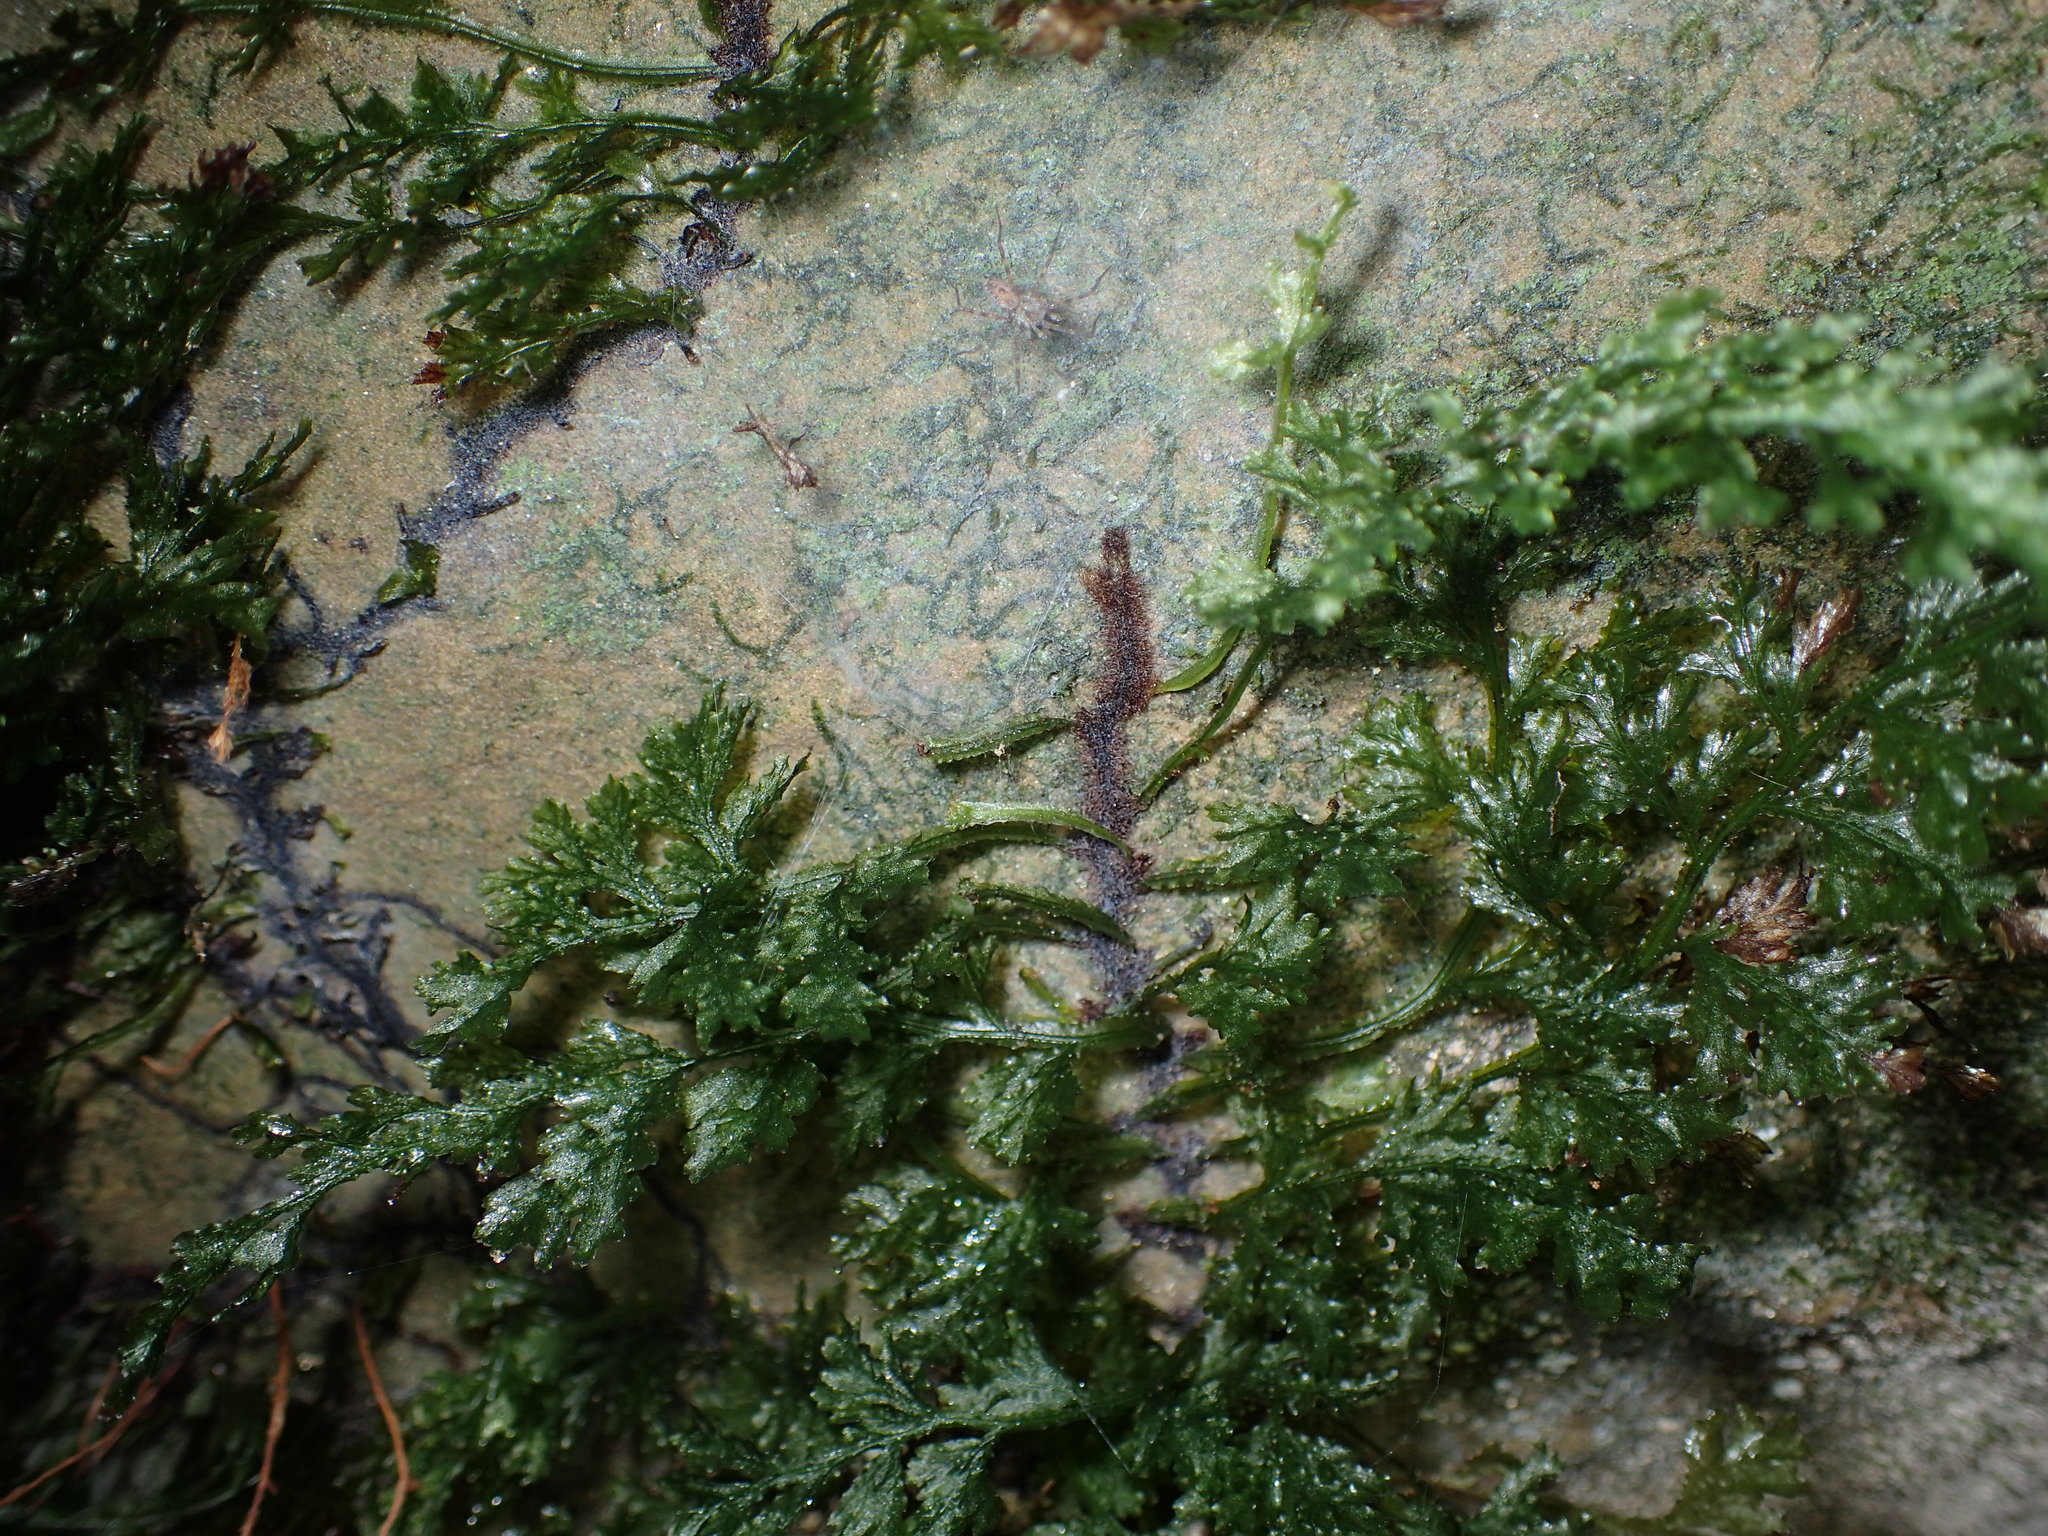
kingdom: Plantae
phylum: Tracheophyta
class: Polypodiopsida
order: Hymenophyllales
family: Hymenophyllaceae
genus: Vandenboschia
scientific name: Vandenboschia boschiana
